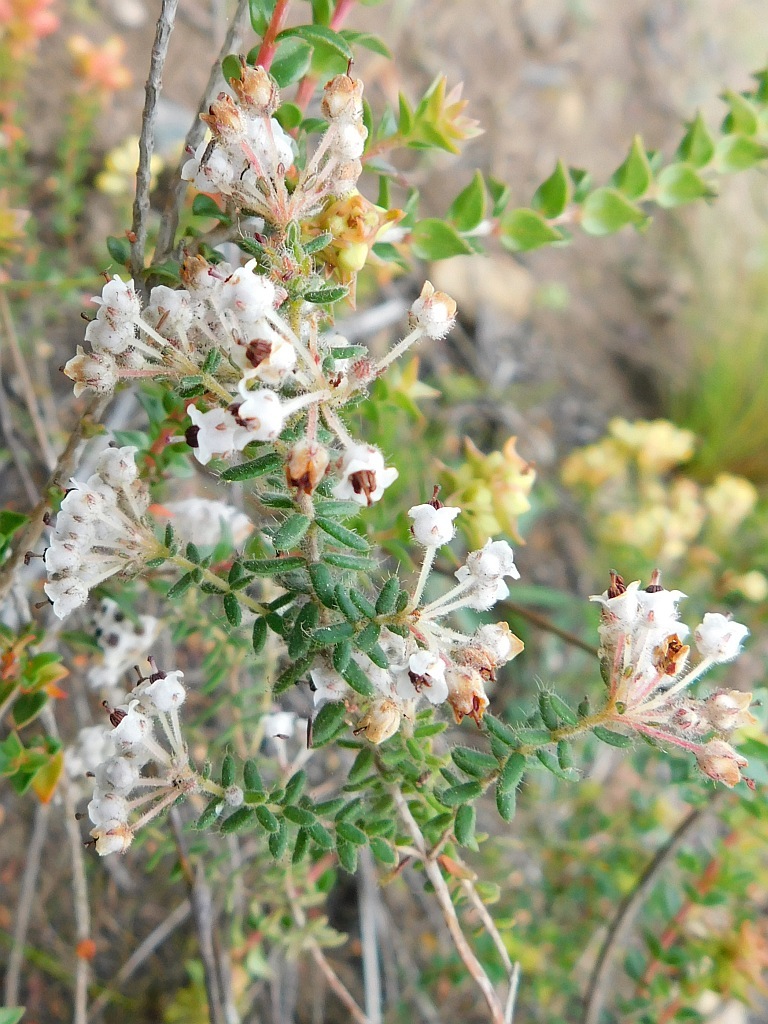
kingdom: Plantae
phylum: Tracheophyta
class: Magnoliopsida
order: Ericales
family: Ericaceae
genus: Erica
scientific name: Erica perlata
